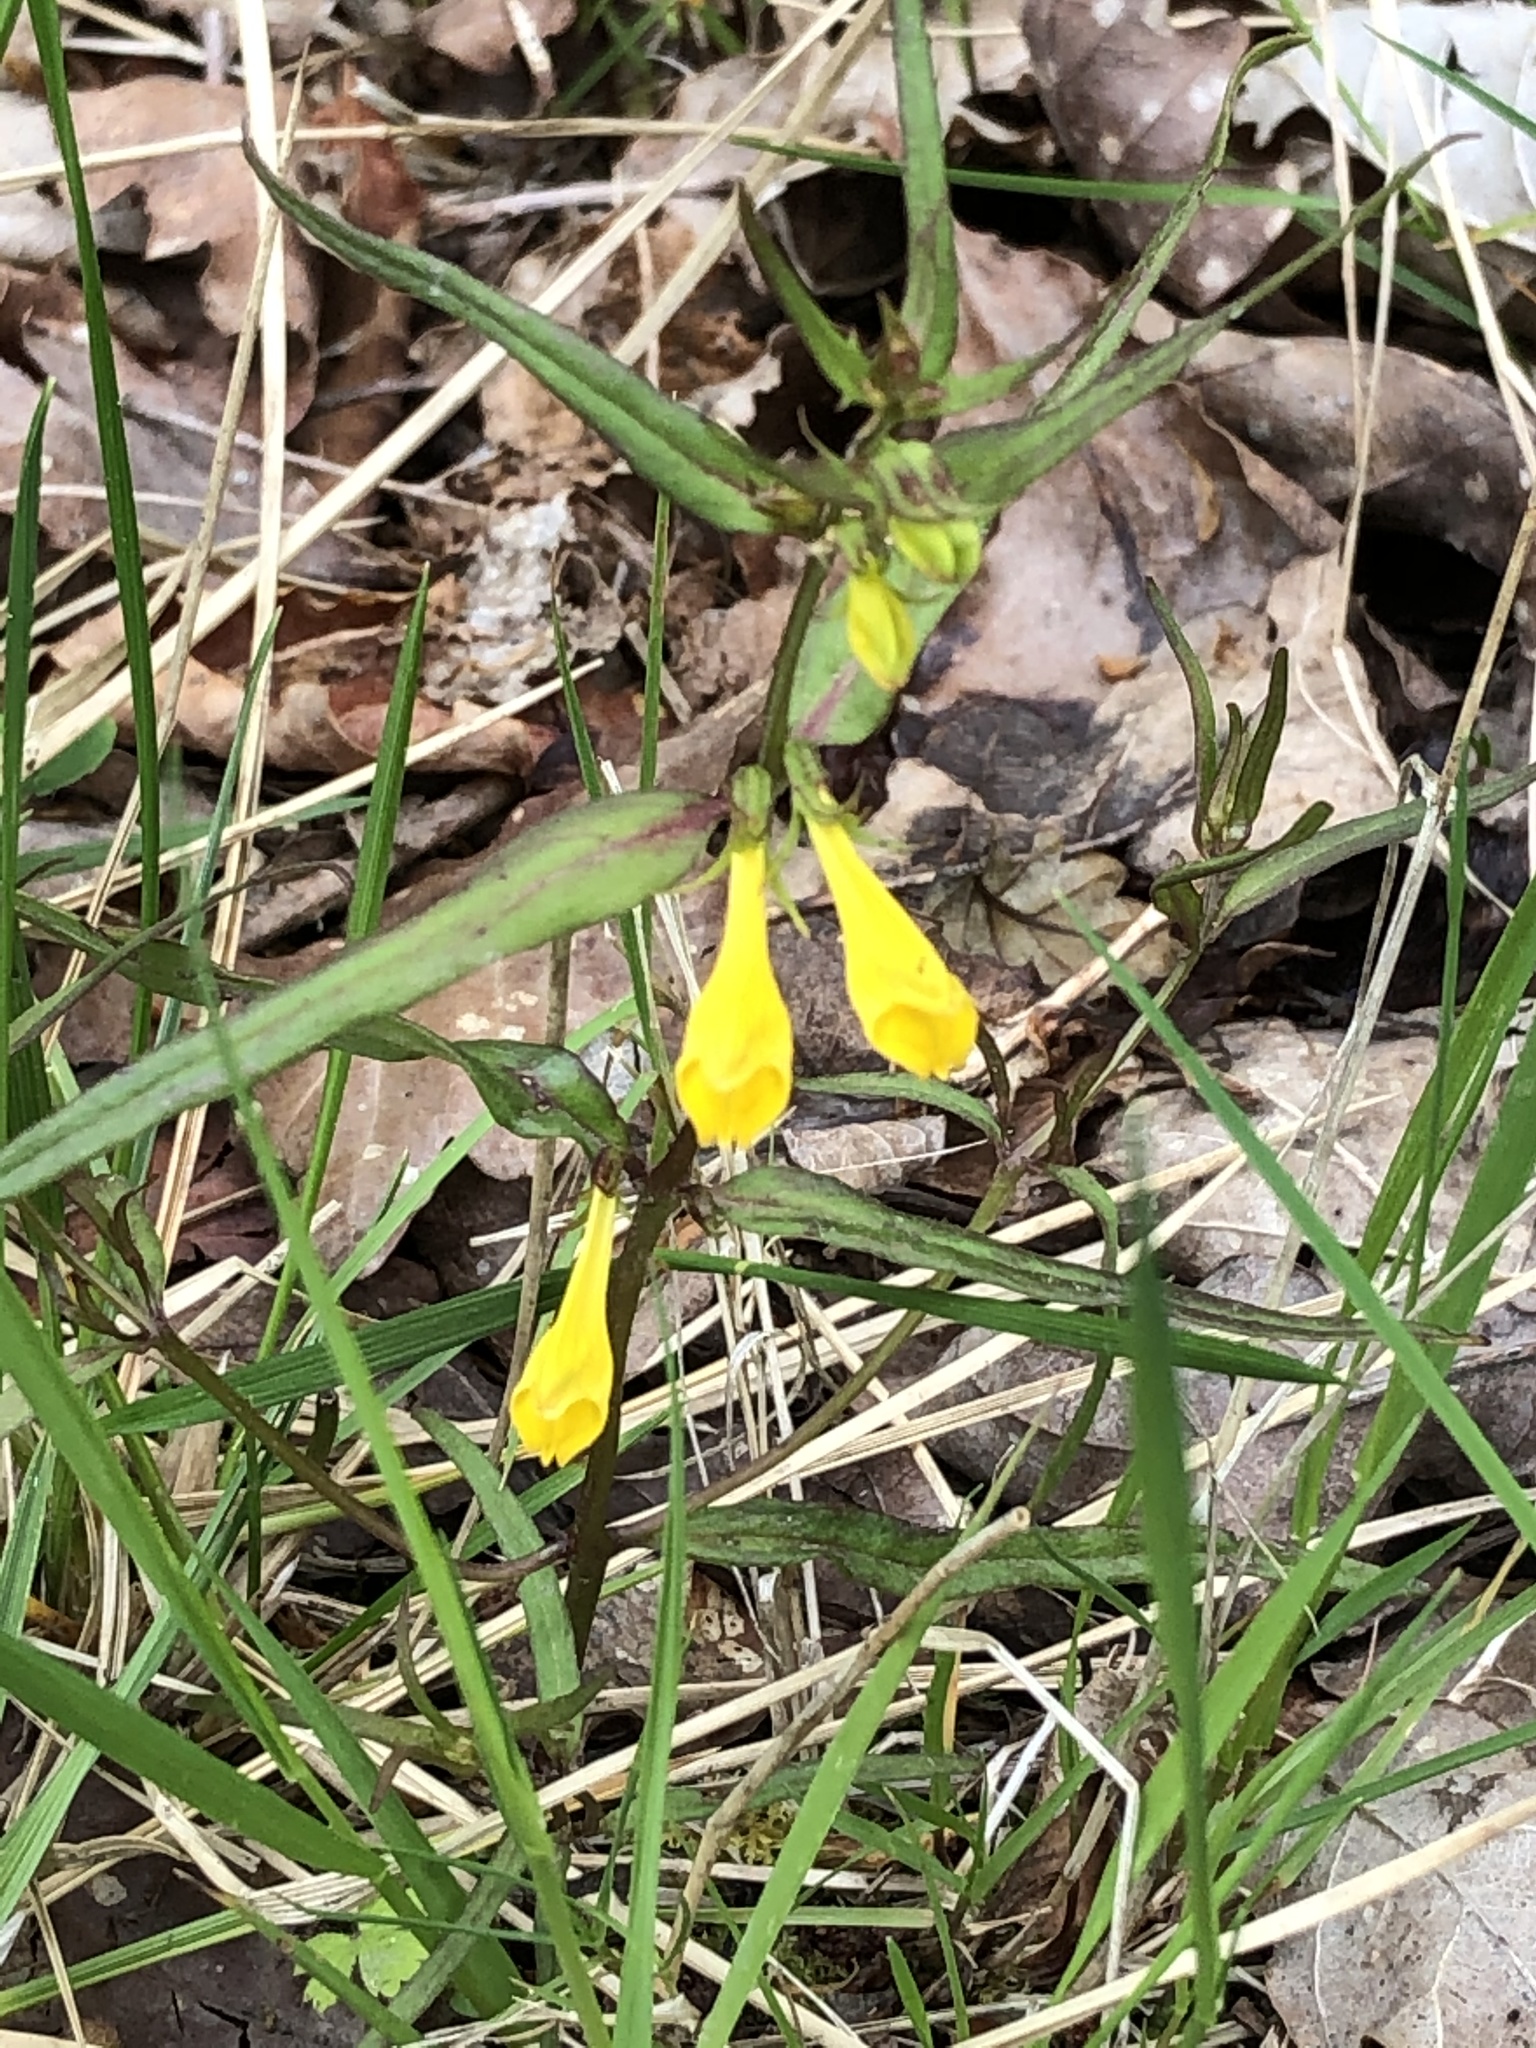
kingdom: Plantae
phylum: Tracheophyta
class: Magnoliopsida
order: Lamiales
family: Orobanchaceae
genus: Melampyrum
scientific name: Melampyrum pratense
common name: Common cow-wheat
